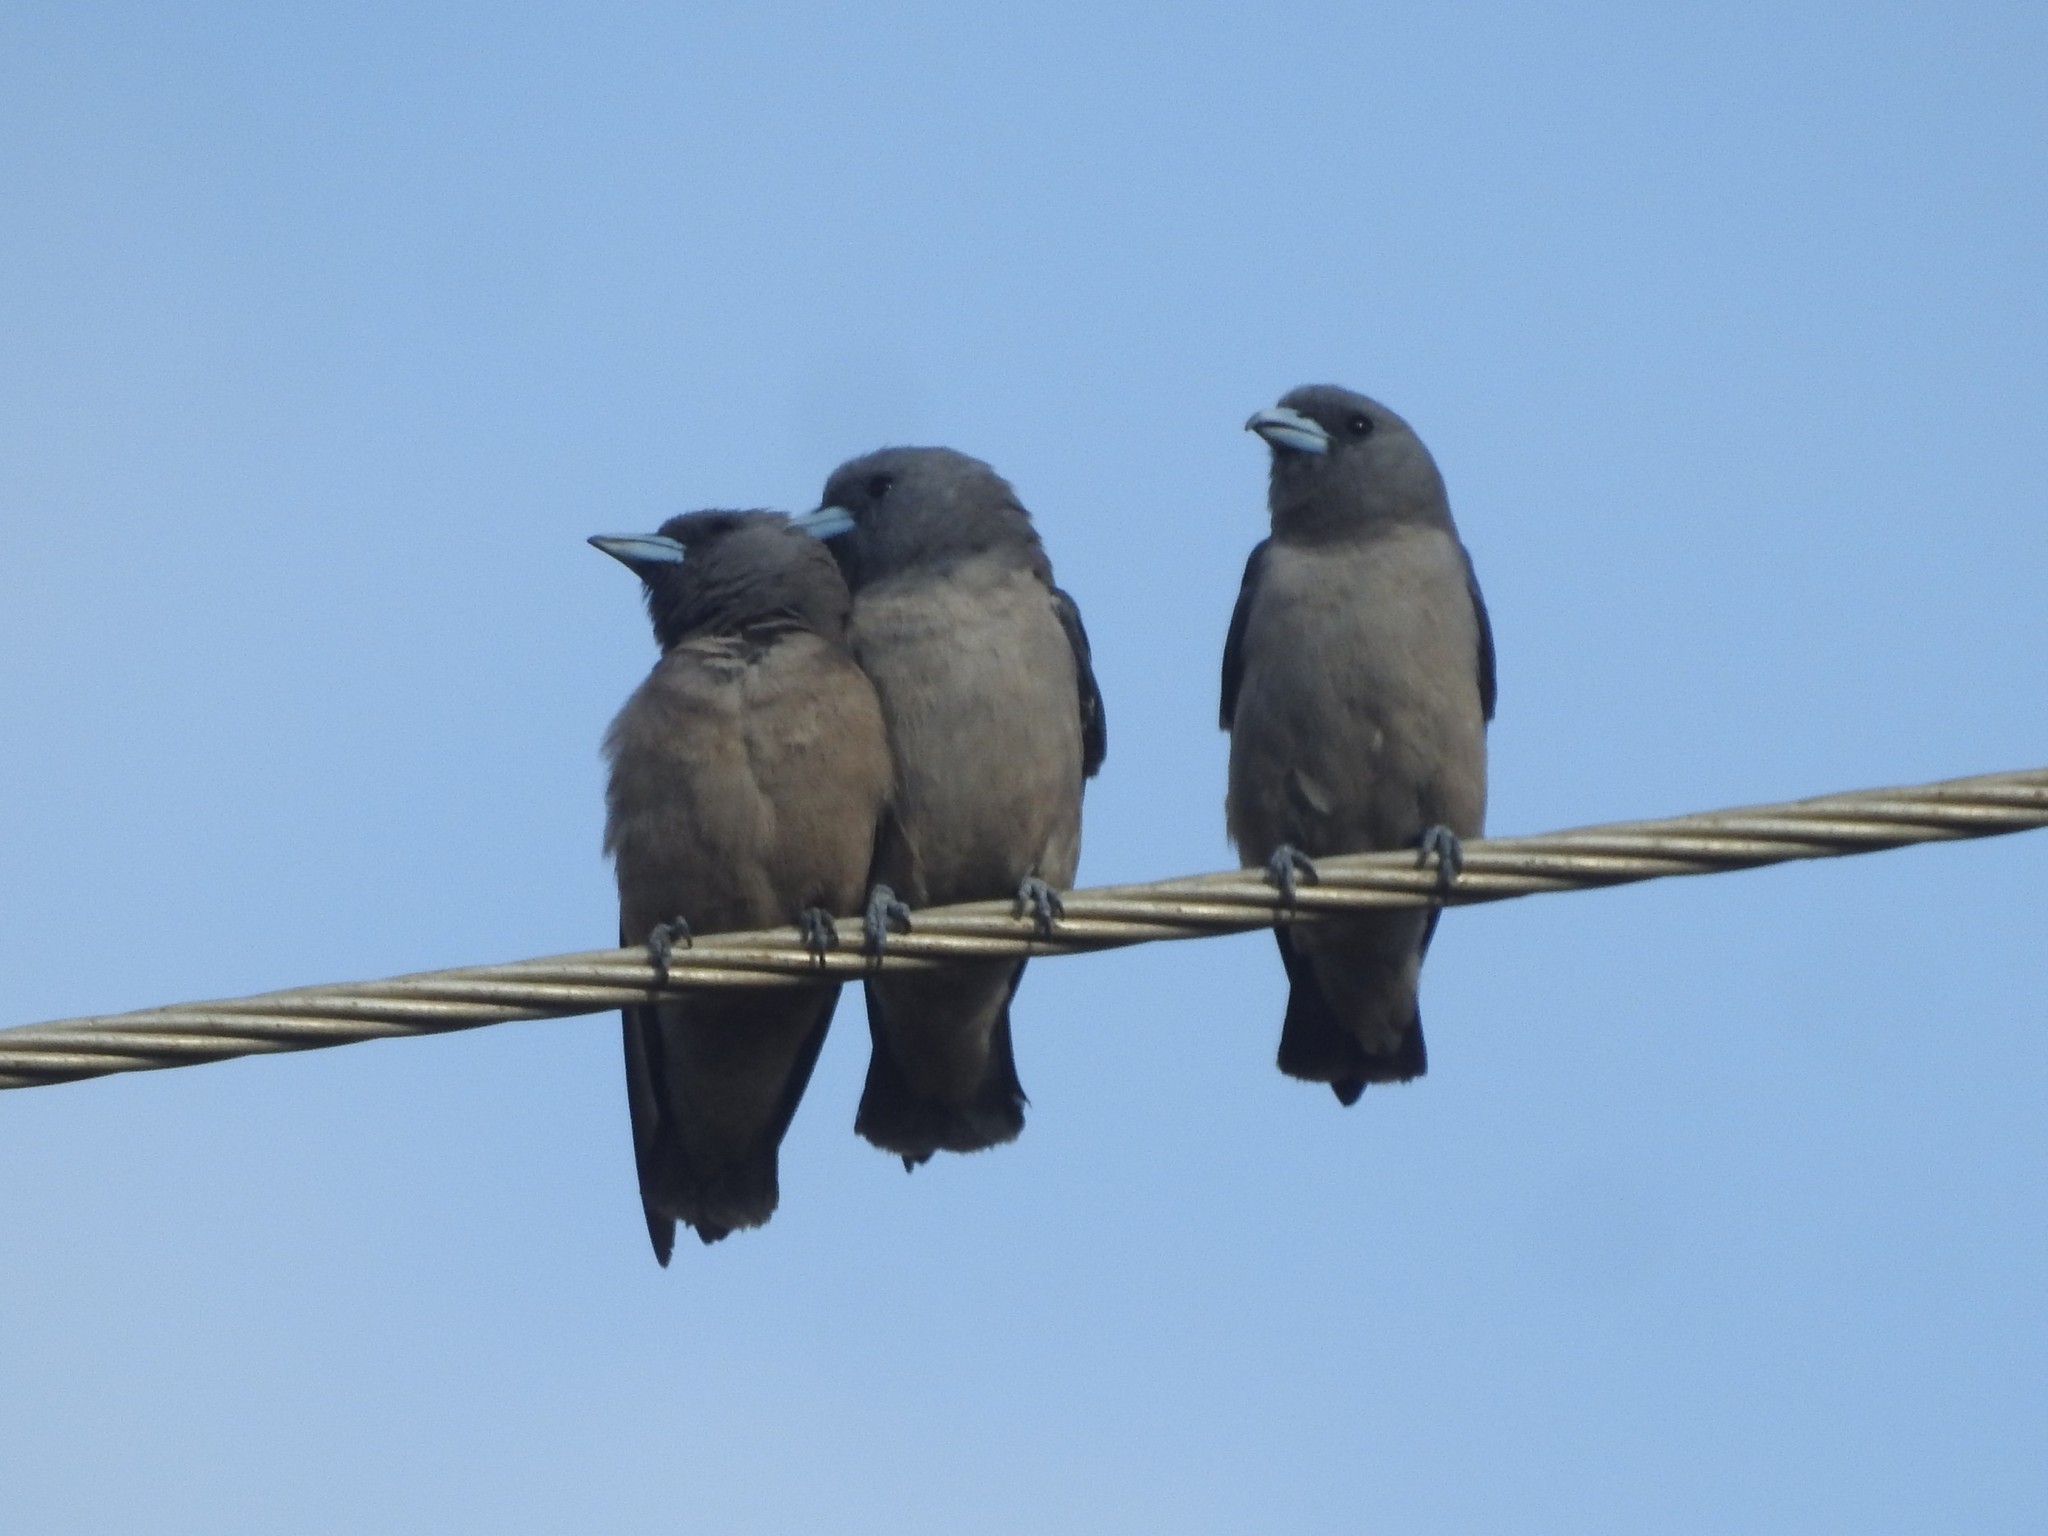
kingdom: Animalia
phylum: Chordata
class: Aves
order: Passeriformes
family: Artamidae
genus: Artamus
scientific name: Artamus fuscus
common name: Ashy woodswallow
